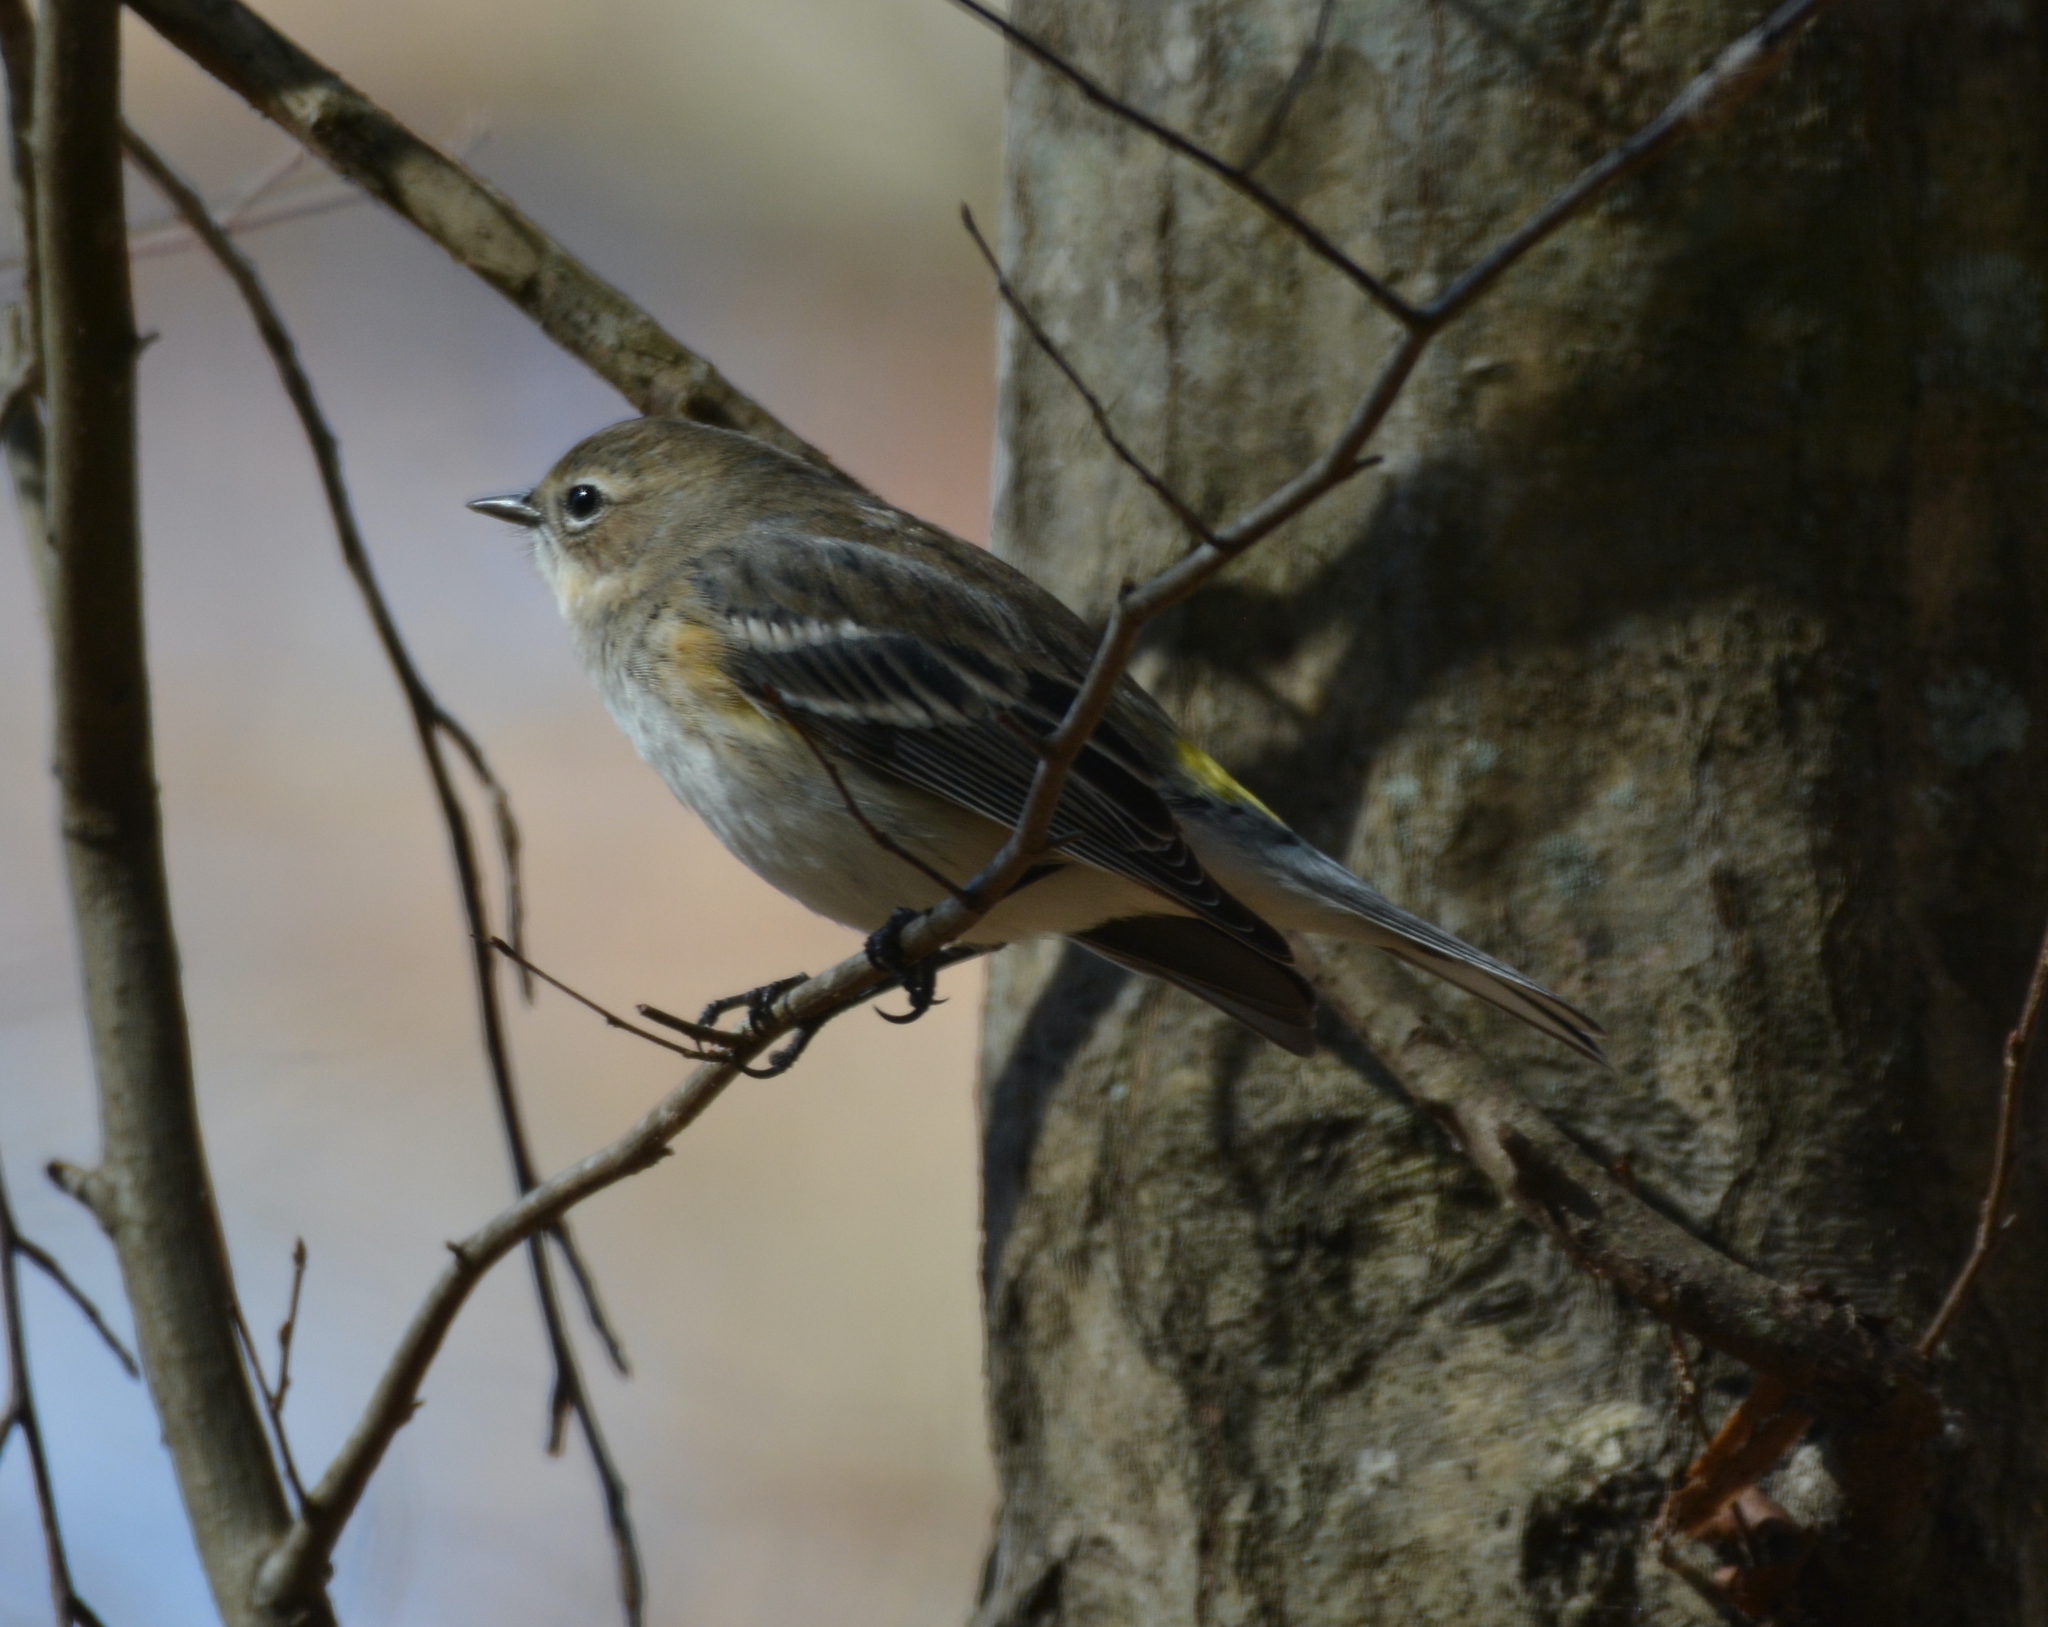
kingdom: Animalia
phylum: Chordata
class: Aves
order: Passeriformes
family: Parulidae
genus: Setophaga
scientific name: Setophaga coronata
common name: Myrtle warbler
